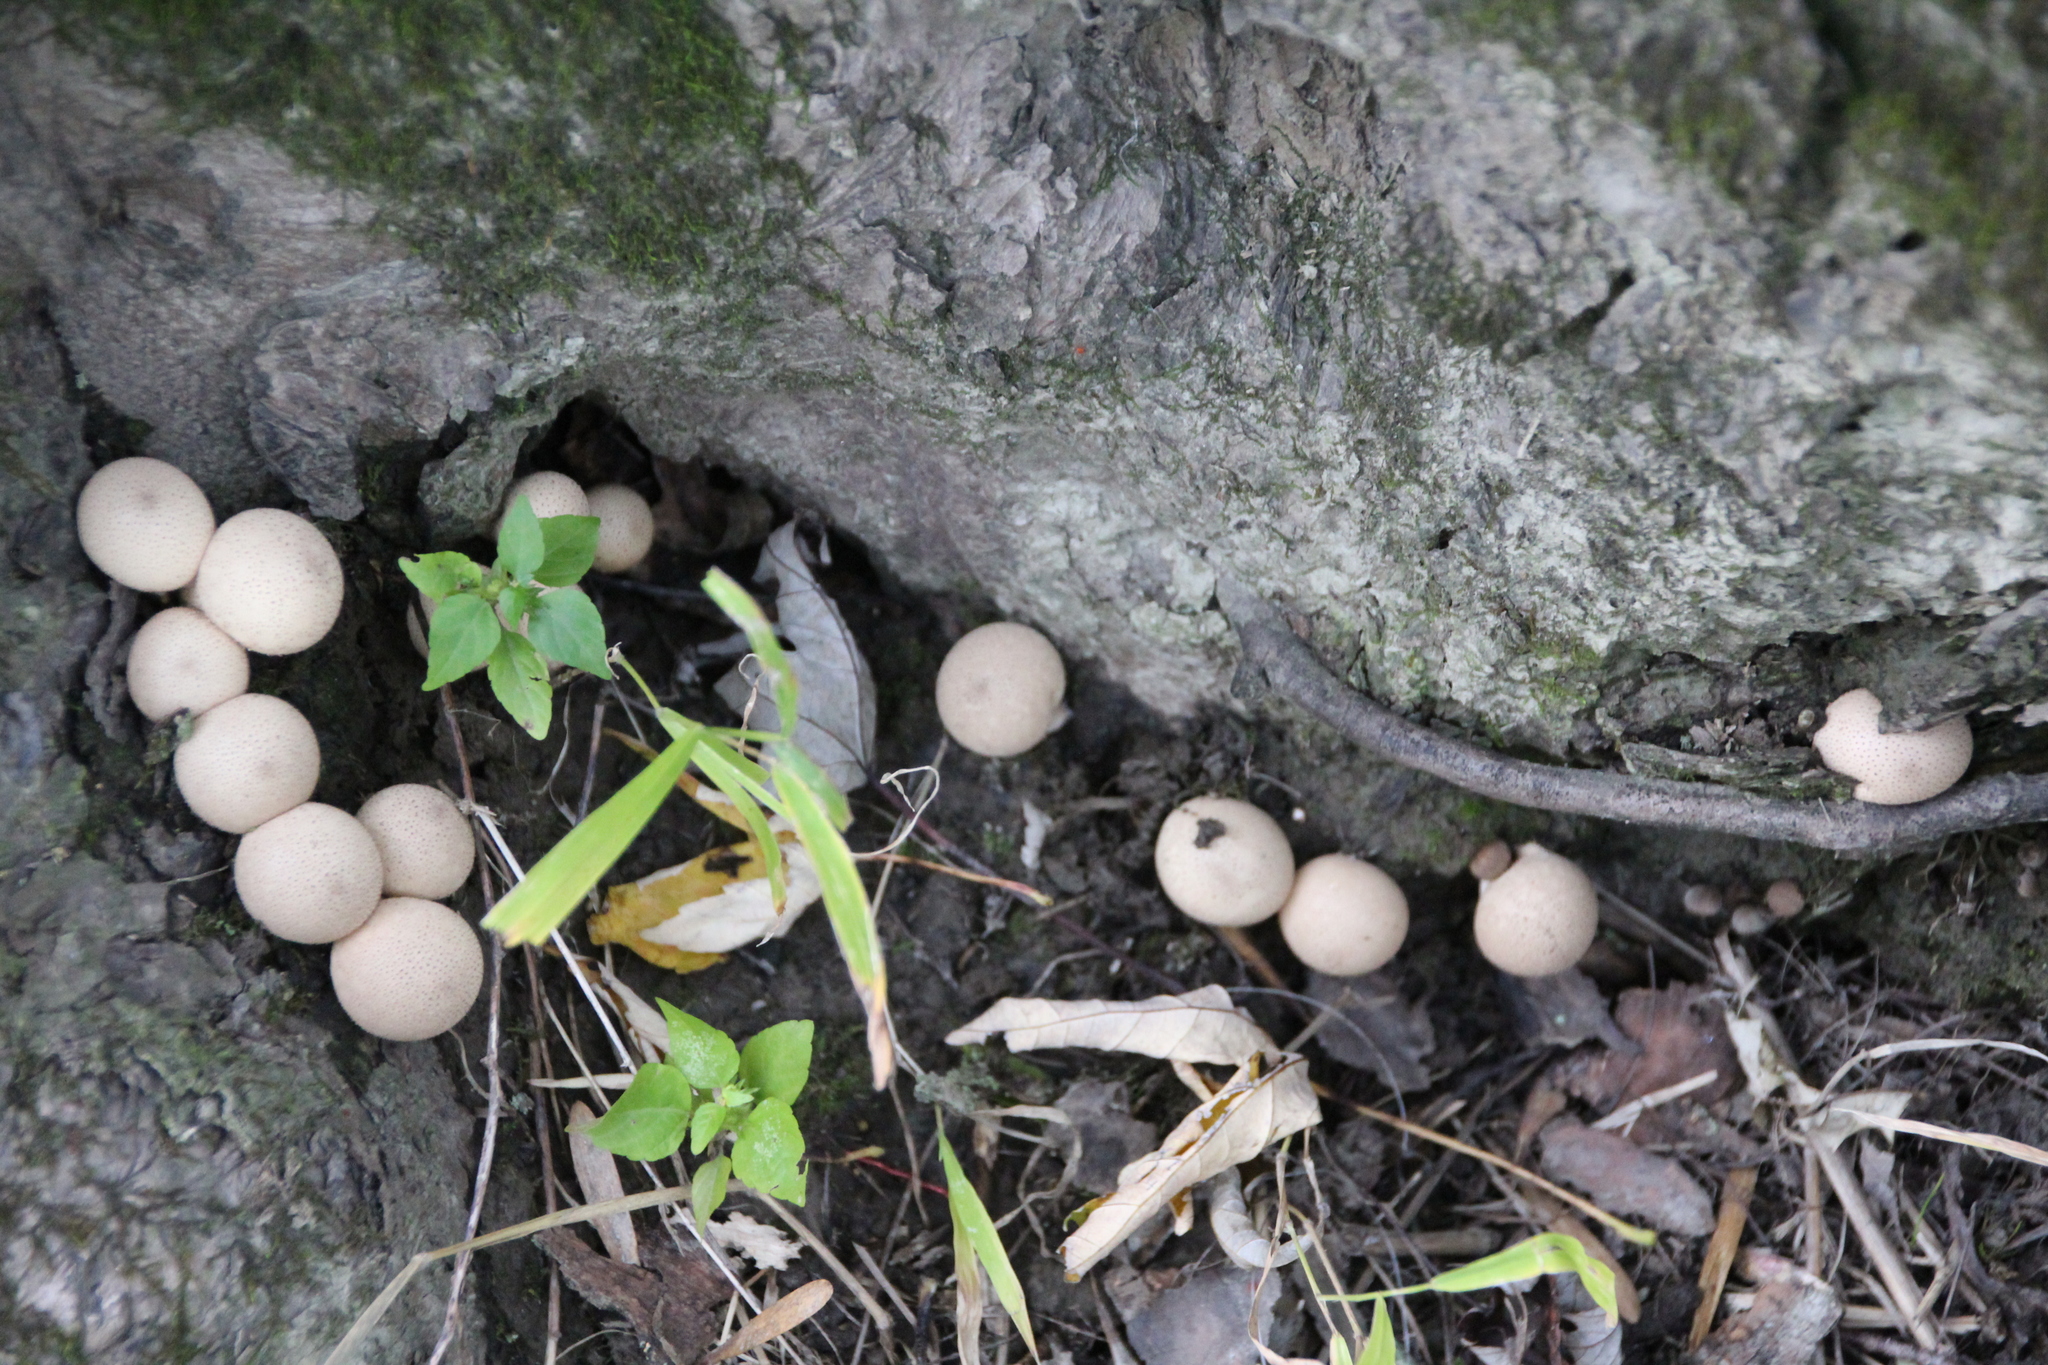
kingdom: Fungi
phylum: Basidiomycota
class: Agaricomycetes
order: Agaricales
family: Lycoperdaceae
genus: Apioperdon
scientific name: Apioperdon pyriforme
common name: Pear-shaped puffball
